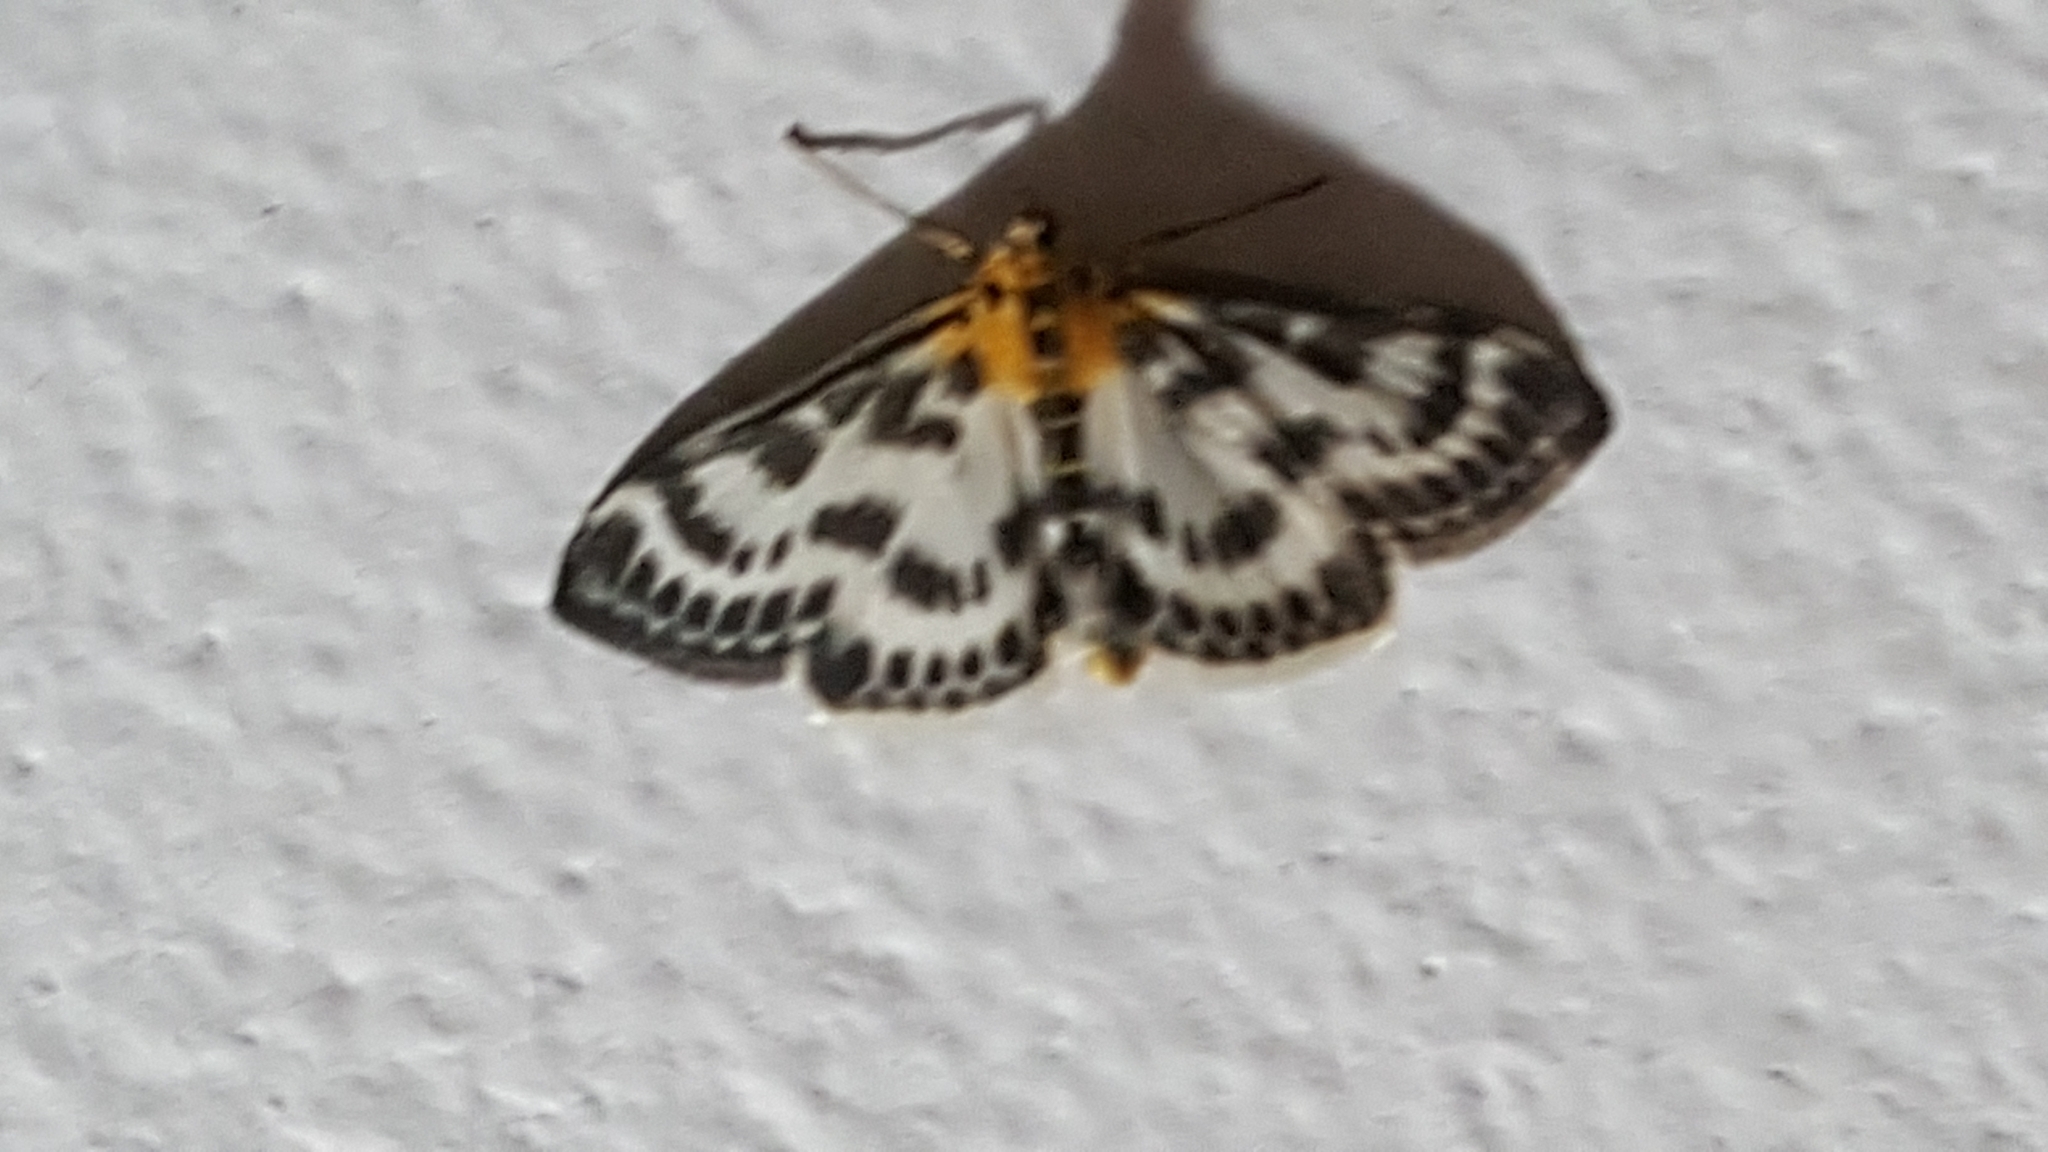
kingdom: Animalia
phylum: Arthropoda
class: Insecta
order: Lepidoptera
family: Crambidae
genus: Anania
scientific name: Anania hortulata
